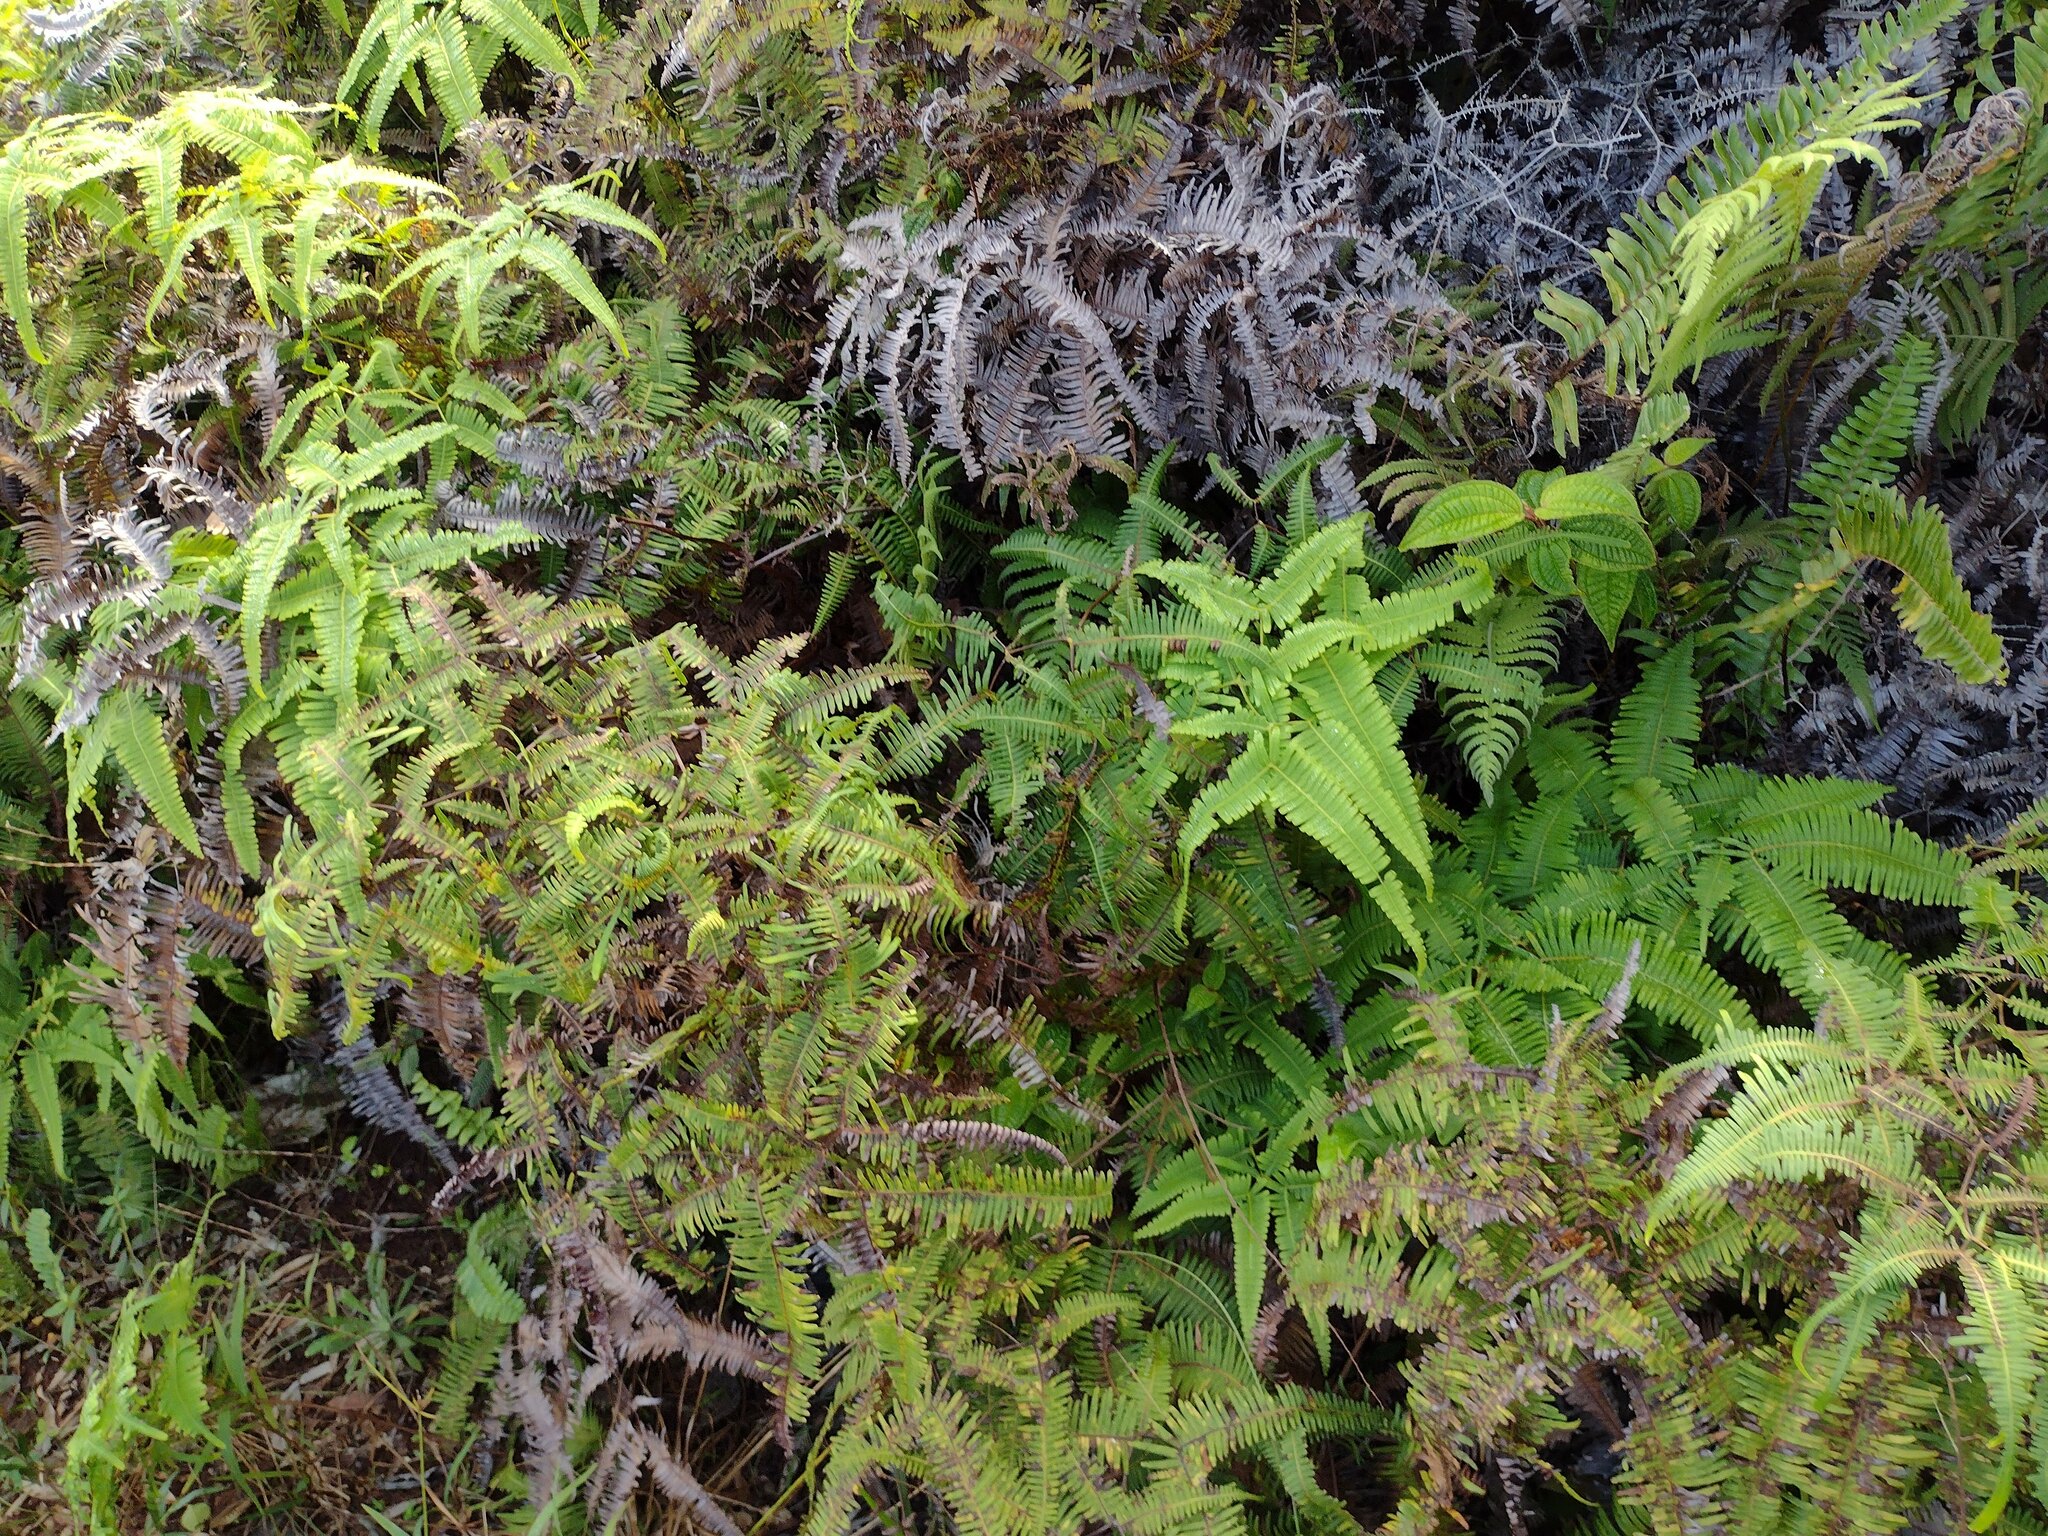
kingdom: Plantae
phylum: Tracheophyta
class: Polypodiopsida
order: Gleicheniales
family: Gleicheniaceae
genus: Dicranopteris
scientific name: Dicranopteris linearis
